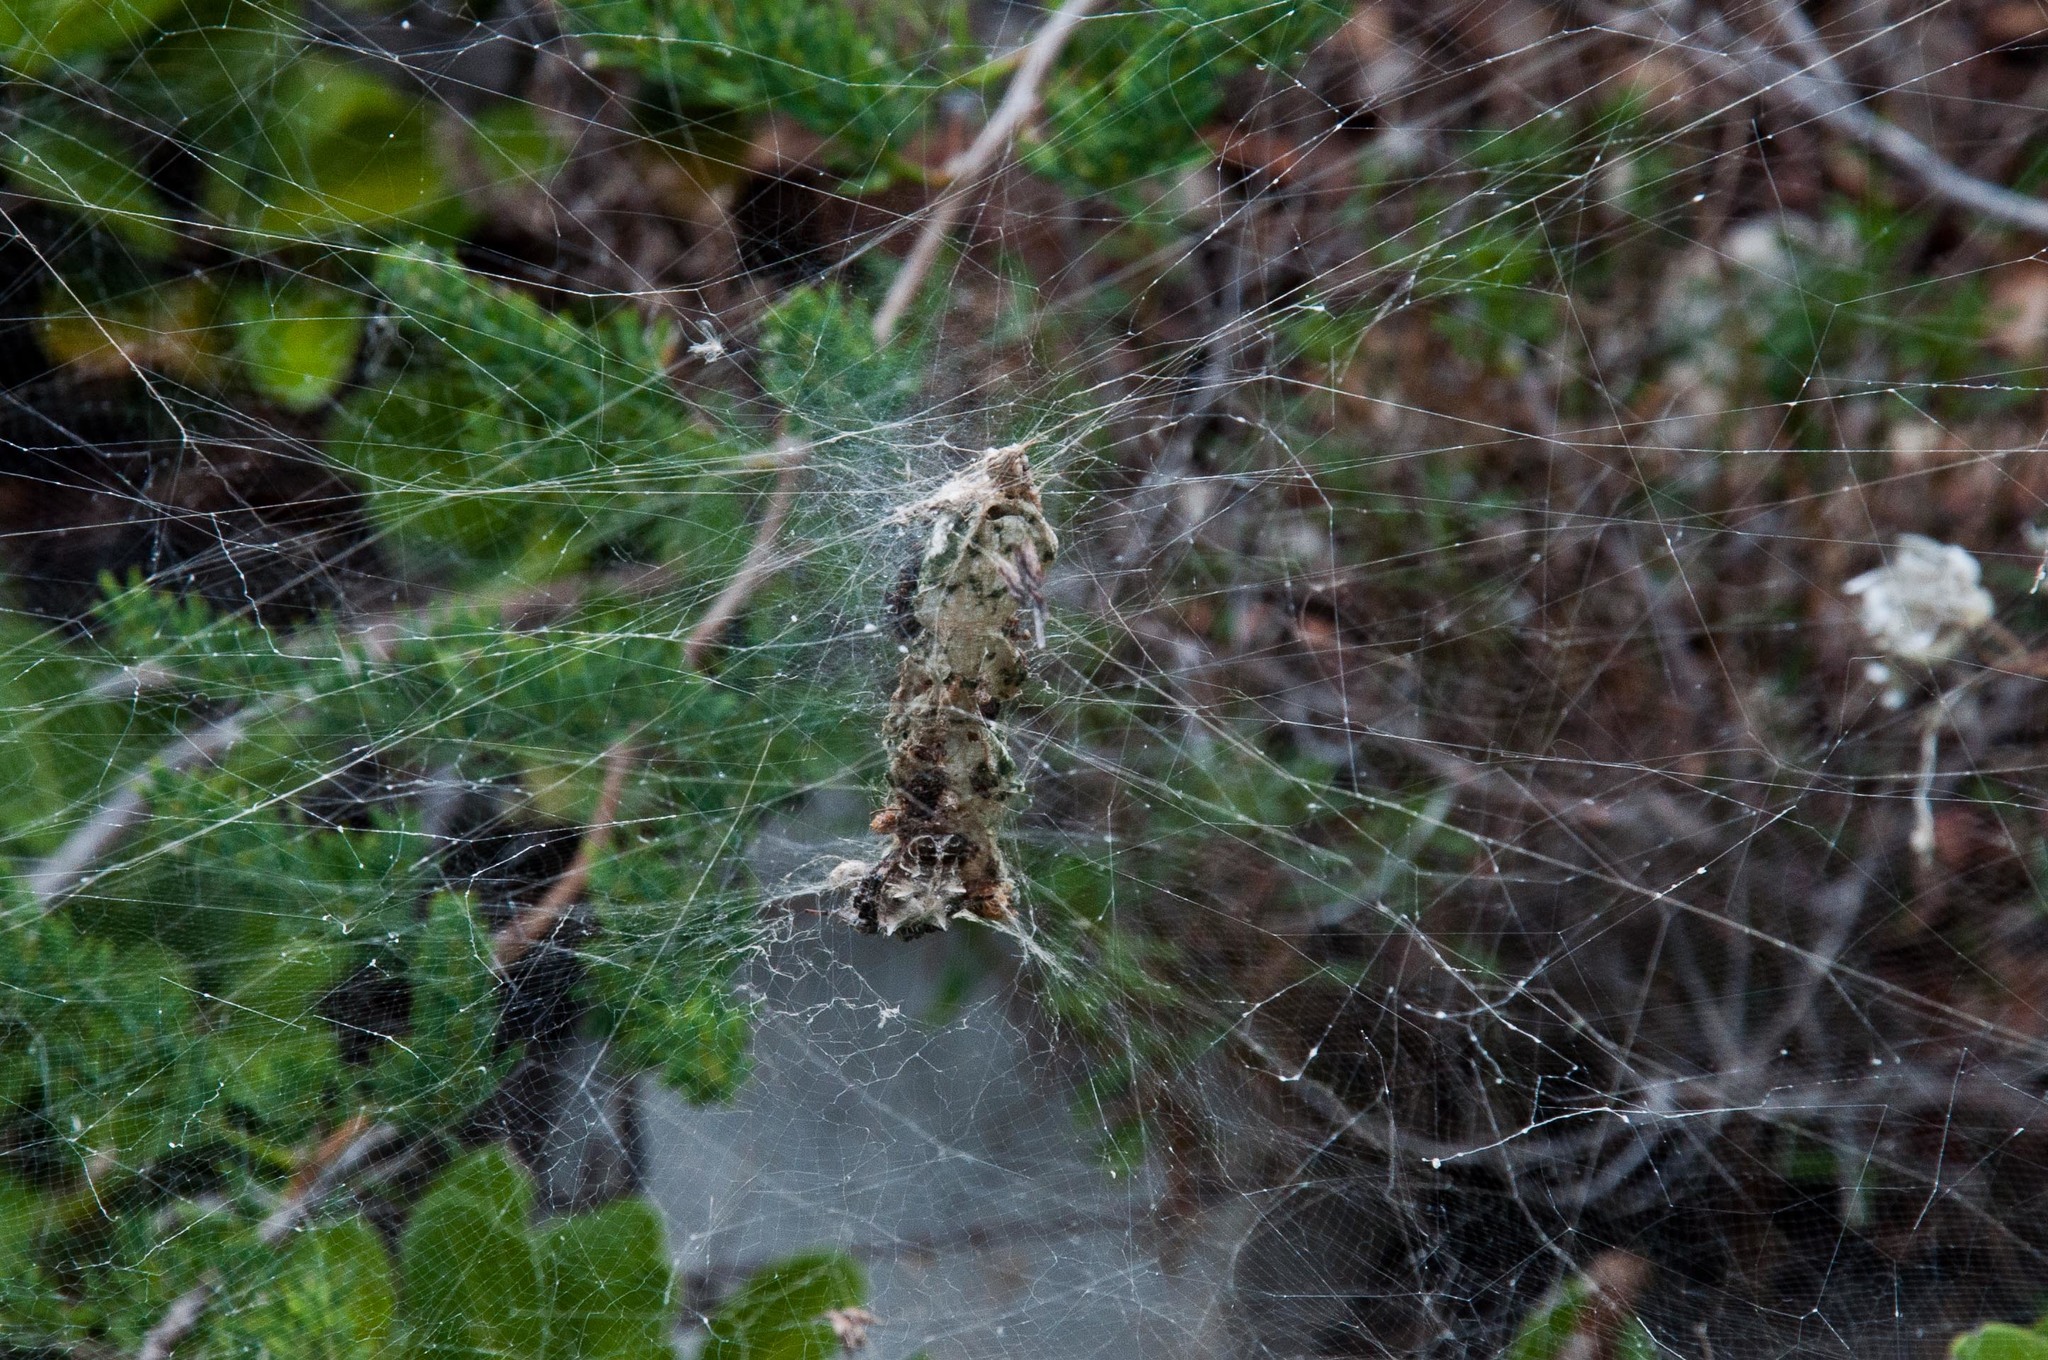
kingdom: Animalia
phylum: Arthropoda
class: Arachnida
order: Araneae
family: Araneidae
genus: Cyrtophora
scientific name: Cyrtophora citricola
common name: Orb weavers
